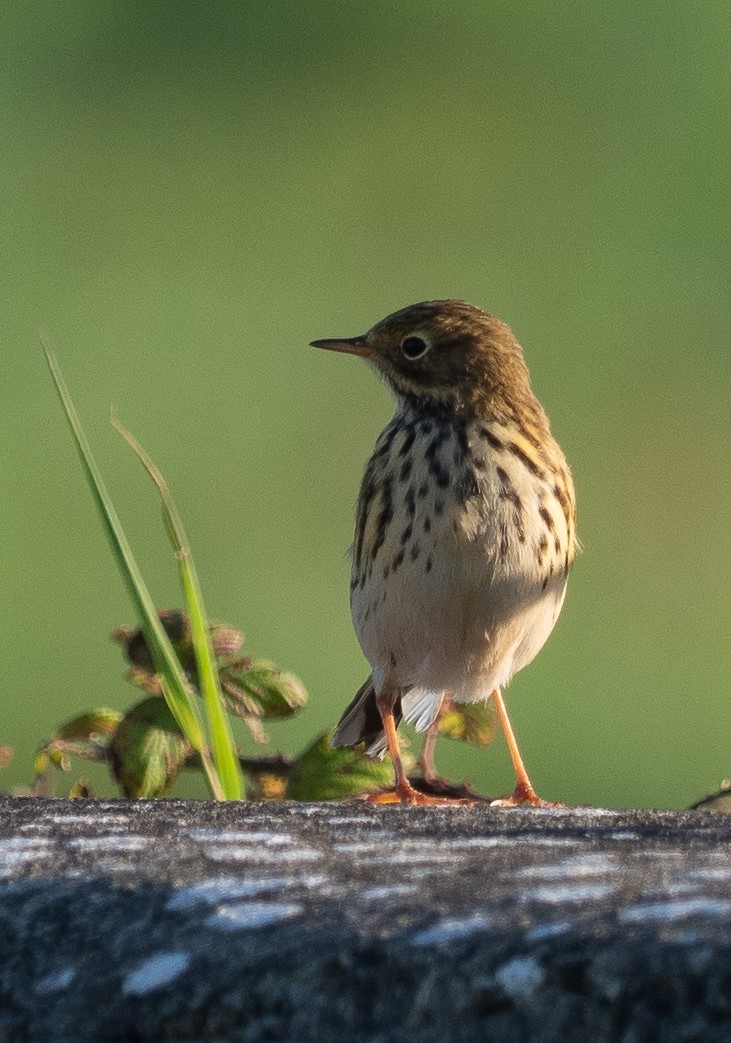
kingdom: Animalia
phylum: Chordata
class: Aves
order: Passeriformes
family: Motacillidae
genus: Anthus
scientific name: Anthus pratensis
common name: Meadow pipit
